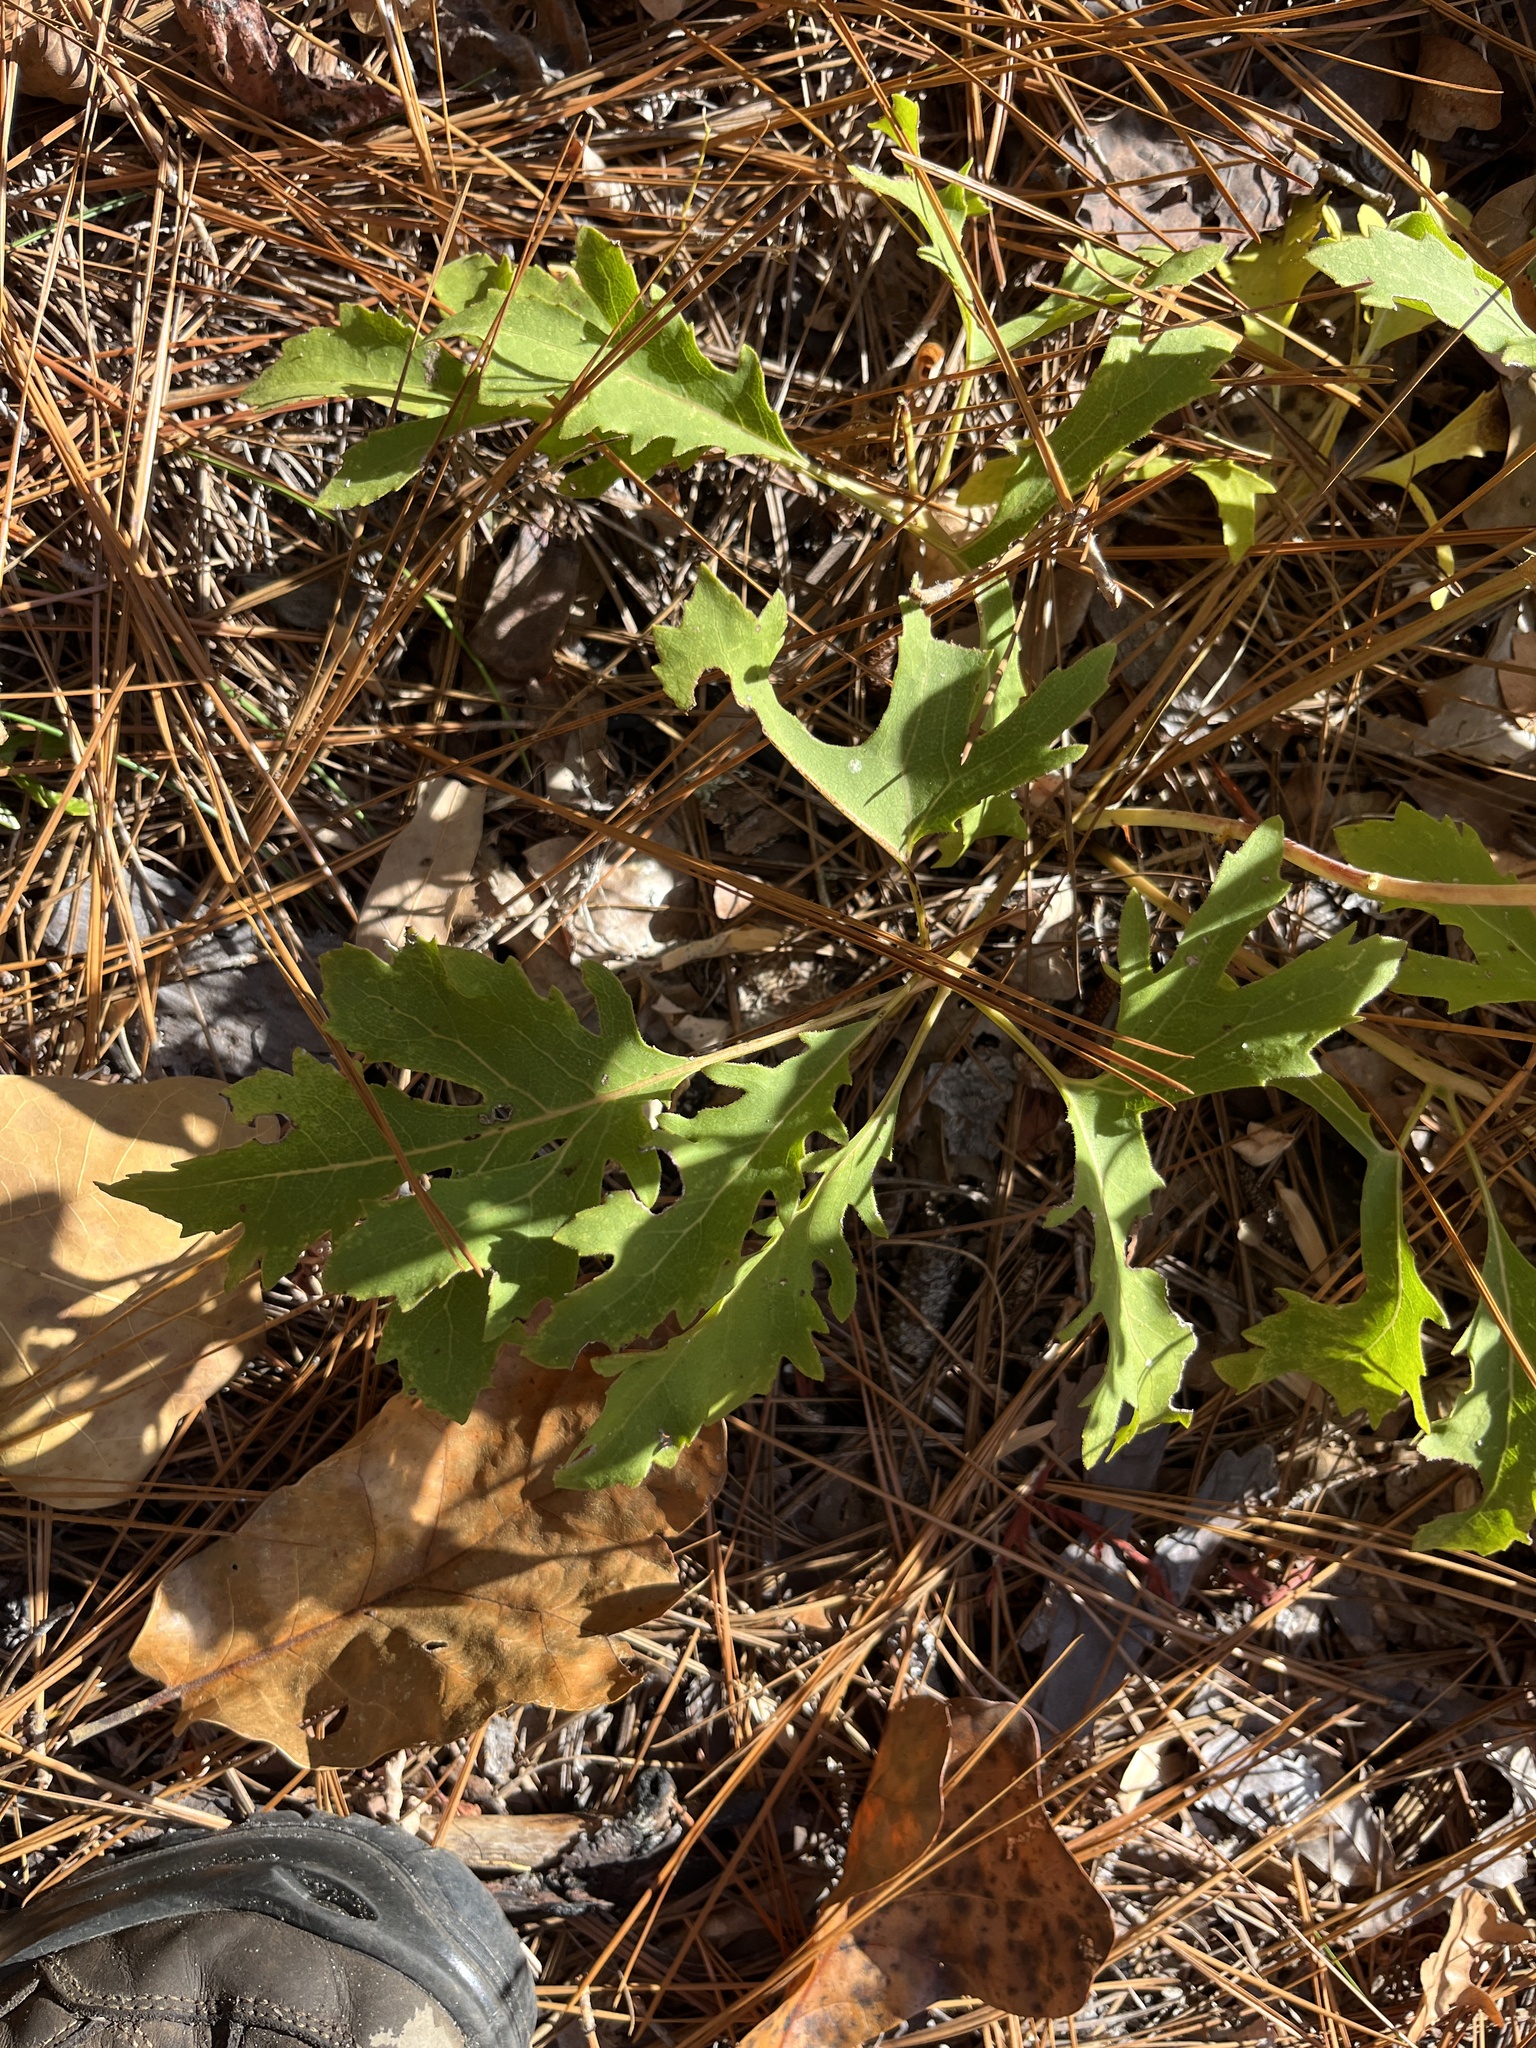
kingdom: Plantae
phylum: Tracheophyta
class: Magnoliopsida
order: Asterales
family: Asteraceae
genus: Silphium
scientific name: Silphium compositum
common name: Lesser basal-leaf rosinweed
